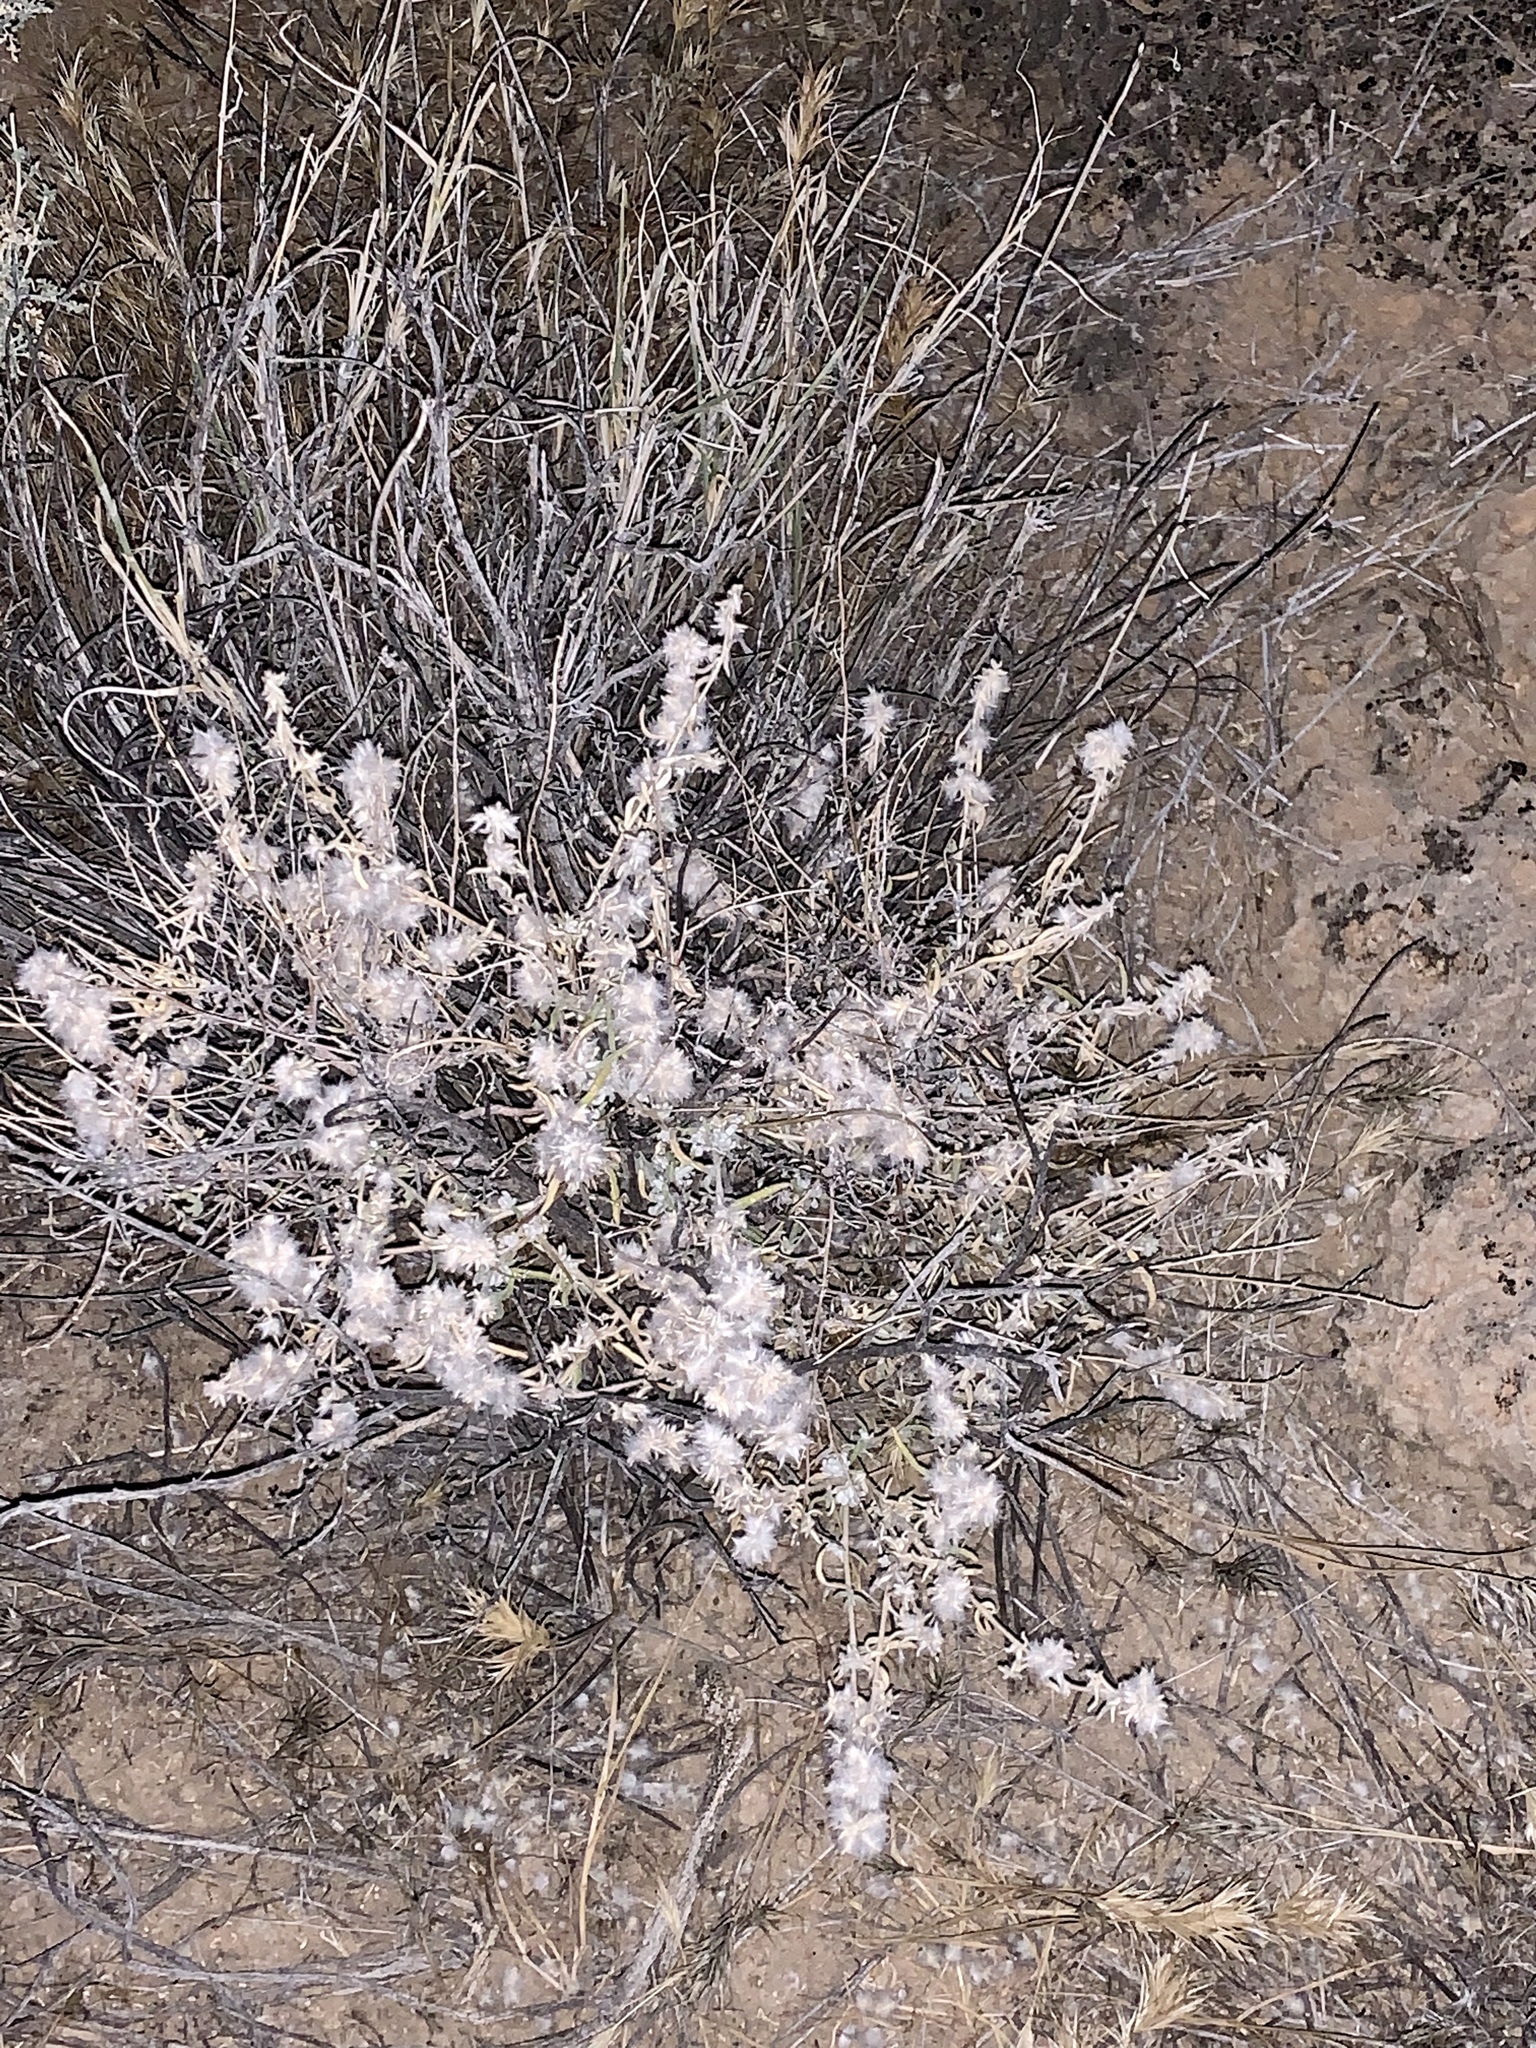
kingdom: Plantae
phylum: Tracheophyta
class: Magnoliopsida
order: Caryophyllales
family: Amaranthaceae
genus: Krascheninnikovia
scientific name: Krascheninnikovia lanata
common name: Winterfat
